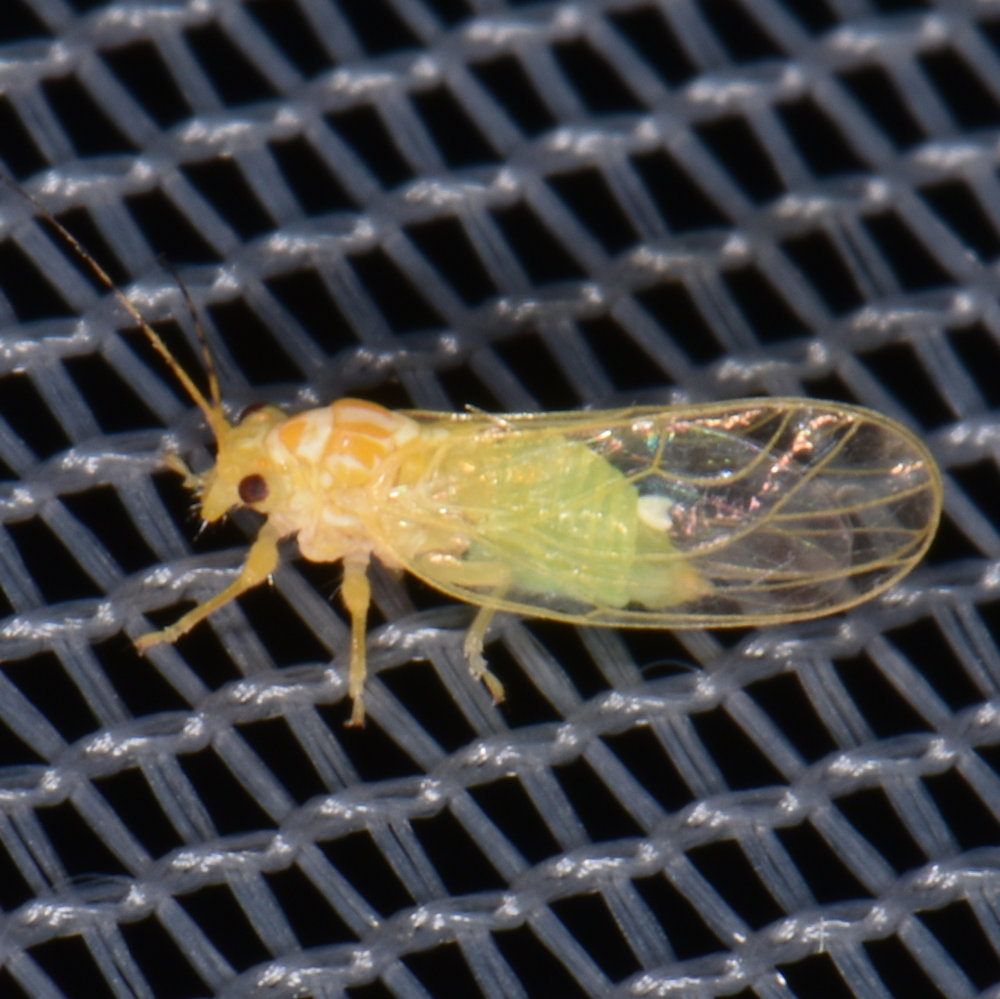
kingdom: Animalia
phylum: Arthropoda
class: Insecta
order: Hemiptera
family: Psyllidae
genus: Cacopsylla
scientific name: Cacopsylla annulata
